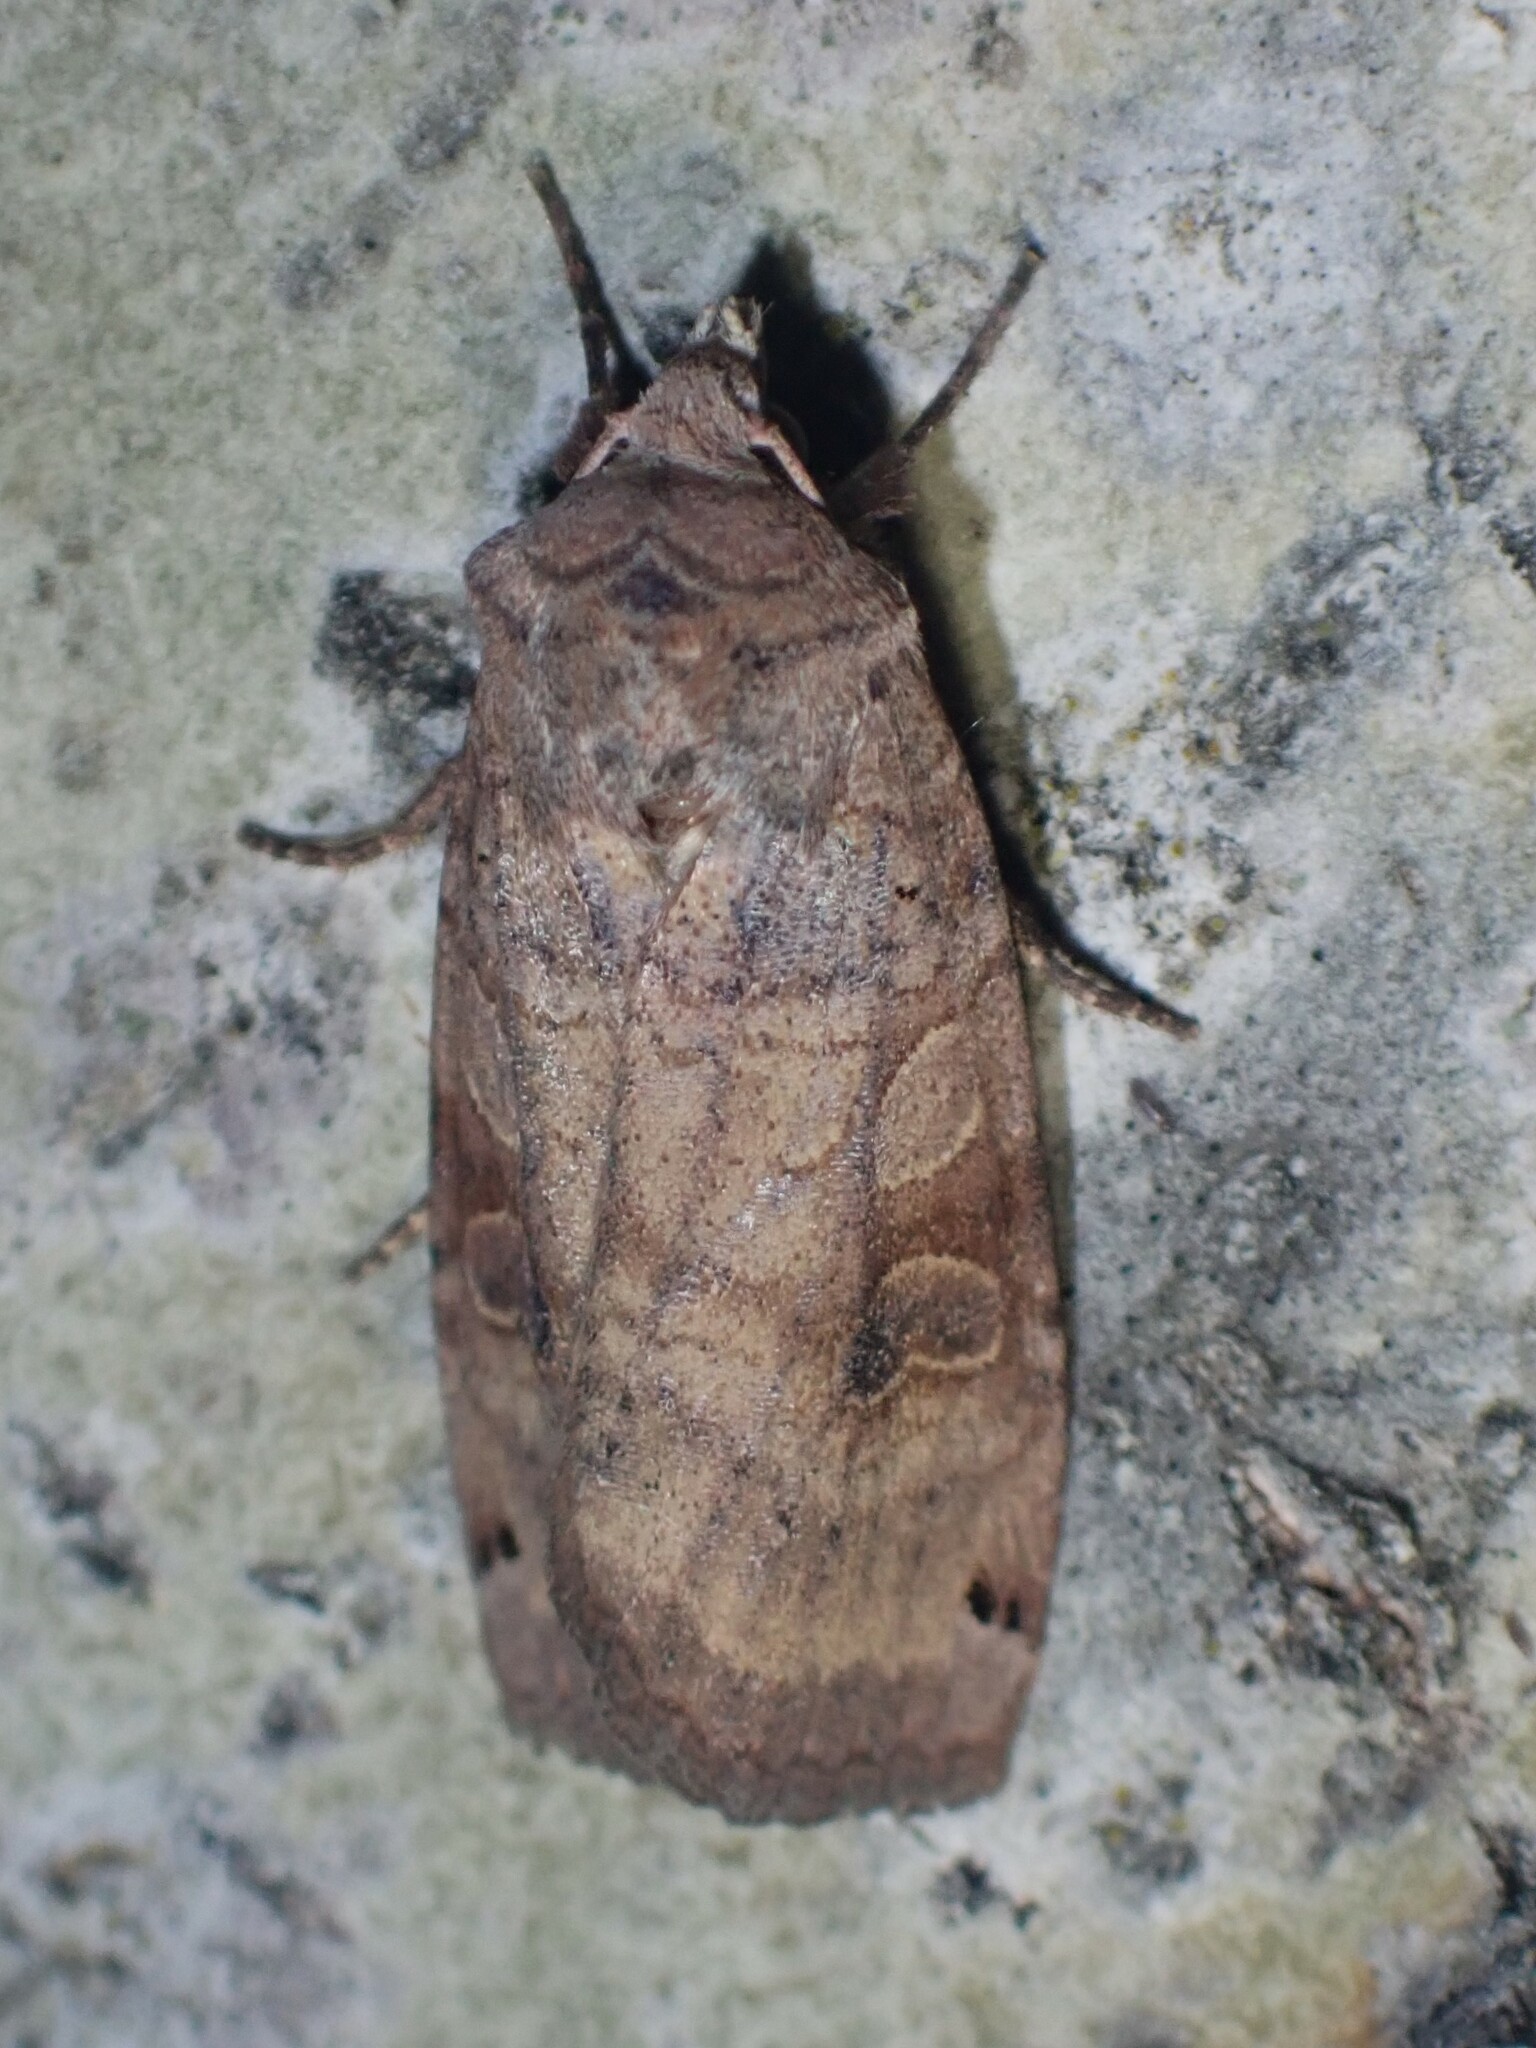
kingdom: Animalia
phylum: Arthropoda
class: Insecta
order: Lepidoptera
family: Noctuidae
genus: Xestia
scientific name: Xestia smithii
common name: Smith's dart
